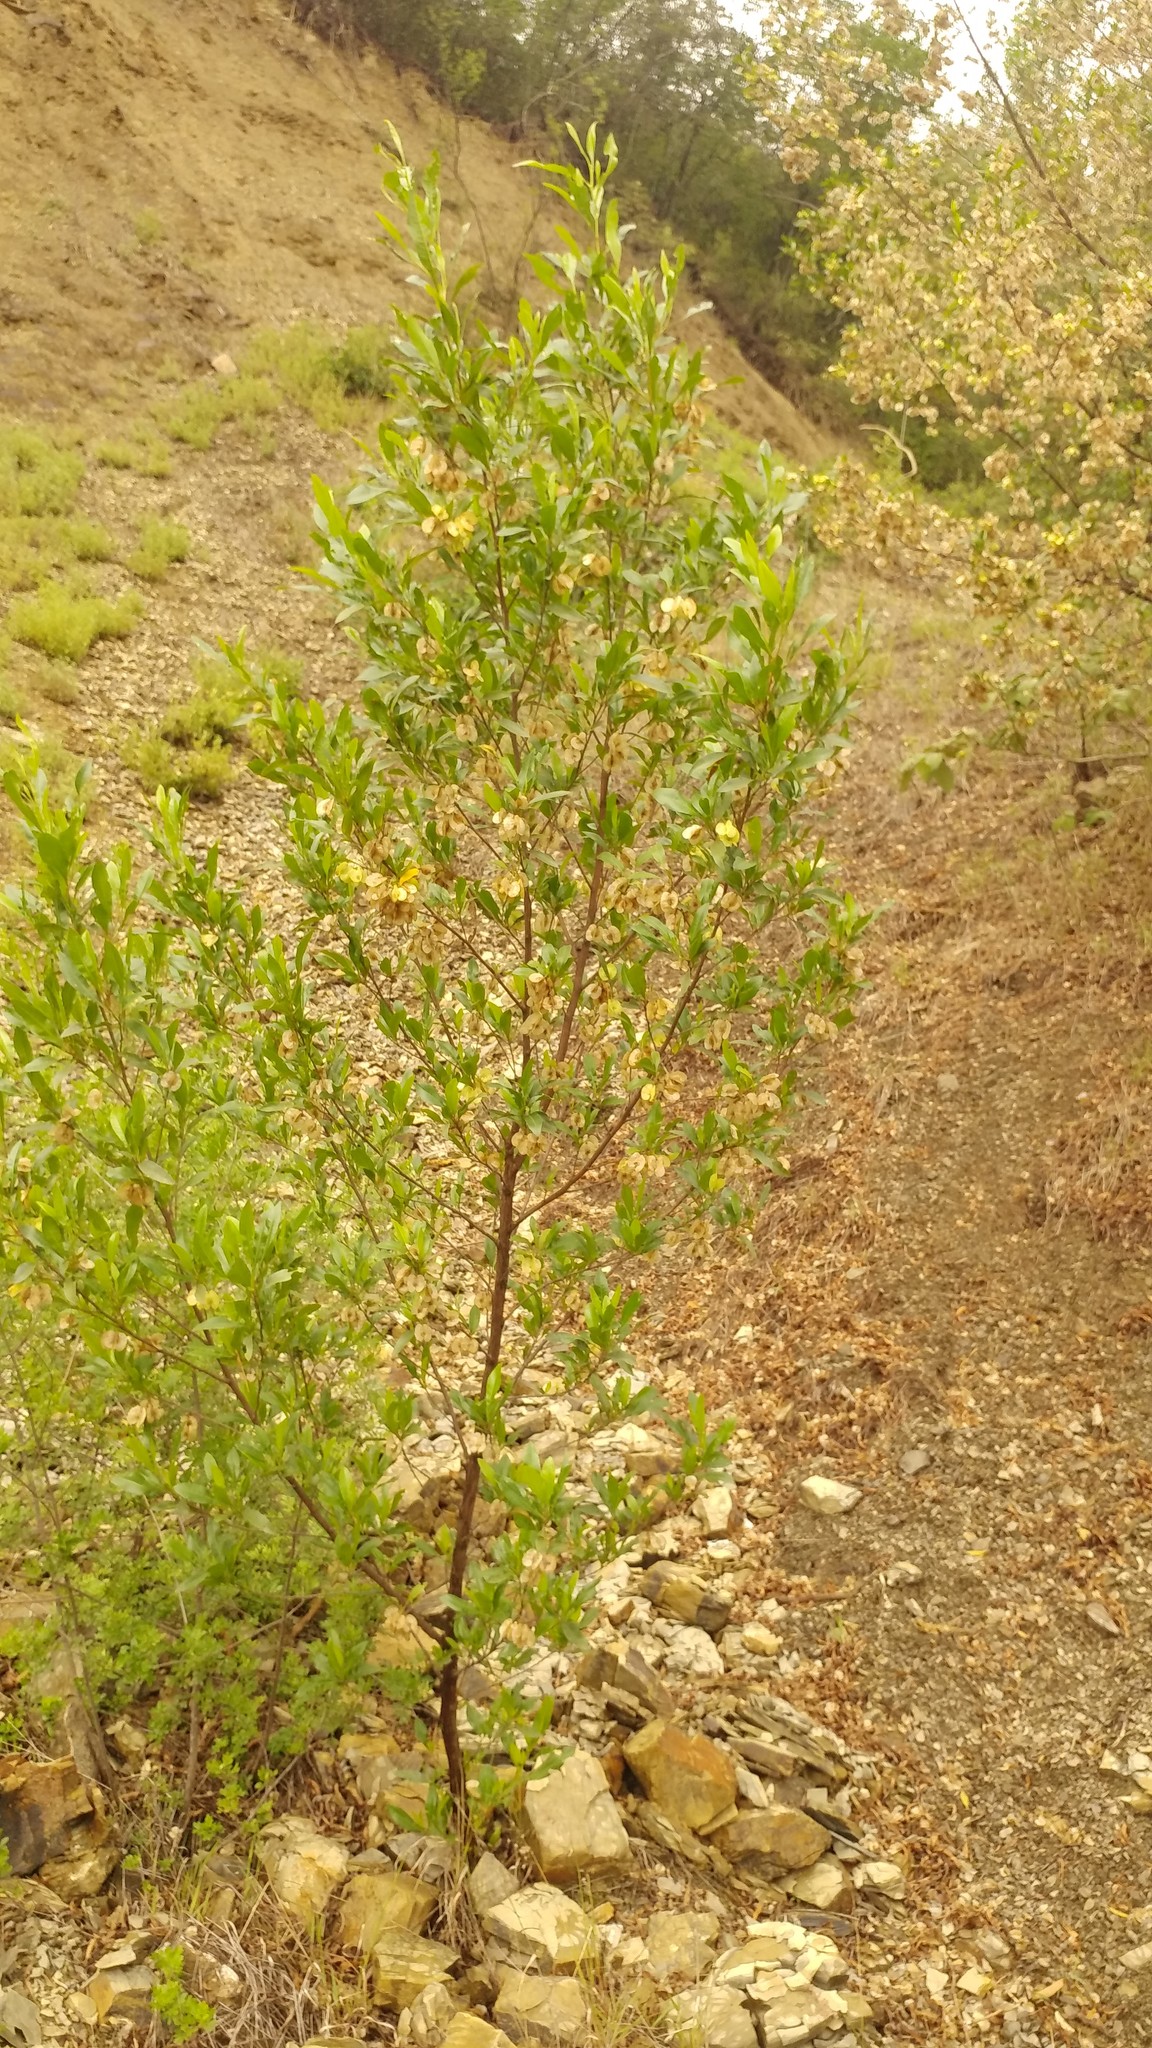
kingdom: Plantae
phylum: Tracheophyta
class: Magnoliopsida
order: Sapindales
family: Sapindaceae
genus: Dodonaea
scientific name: Dodonaea viscosa
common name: Hopbush
